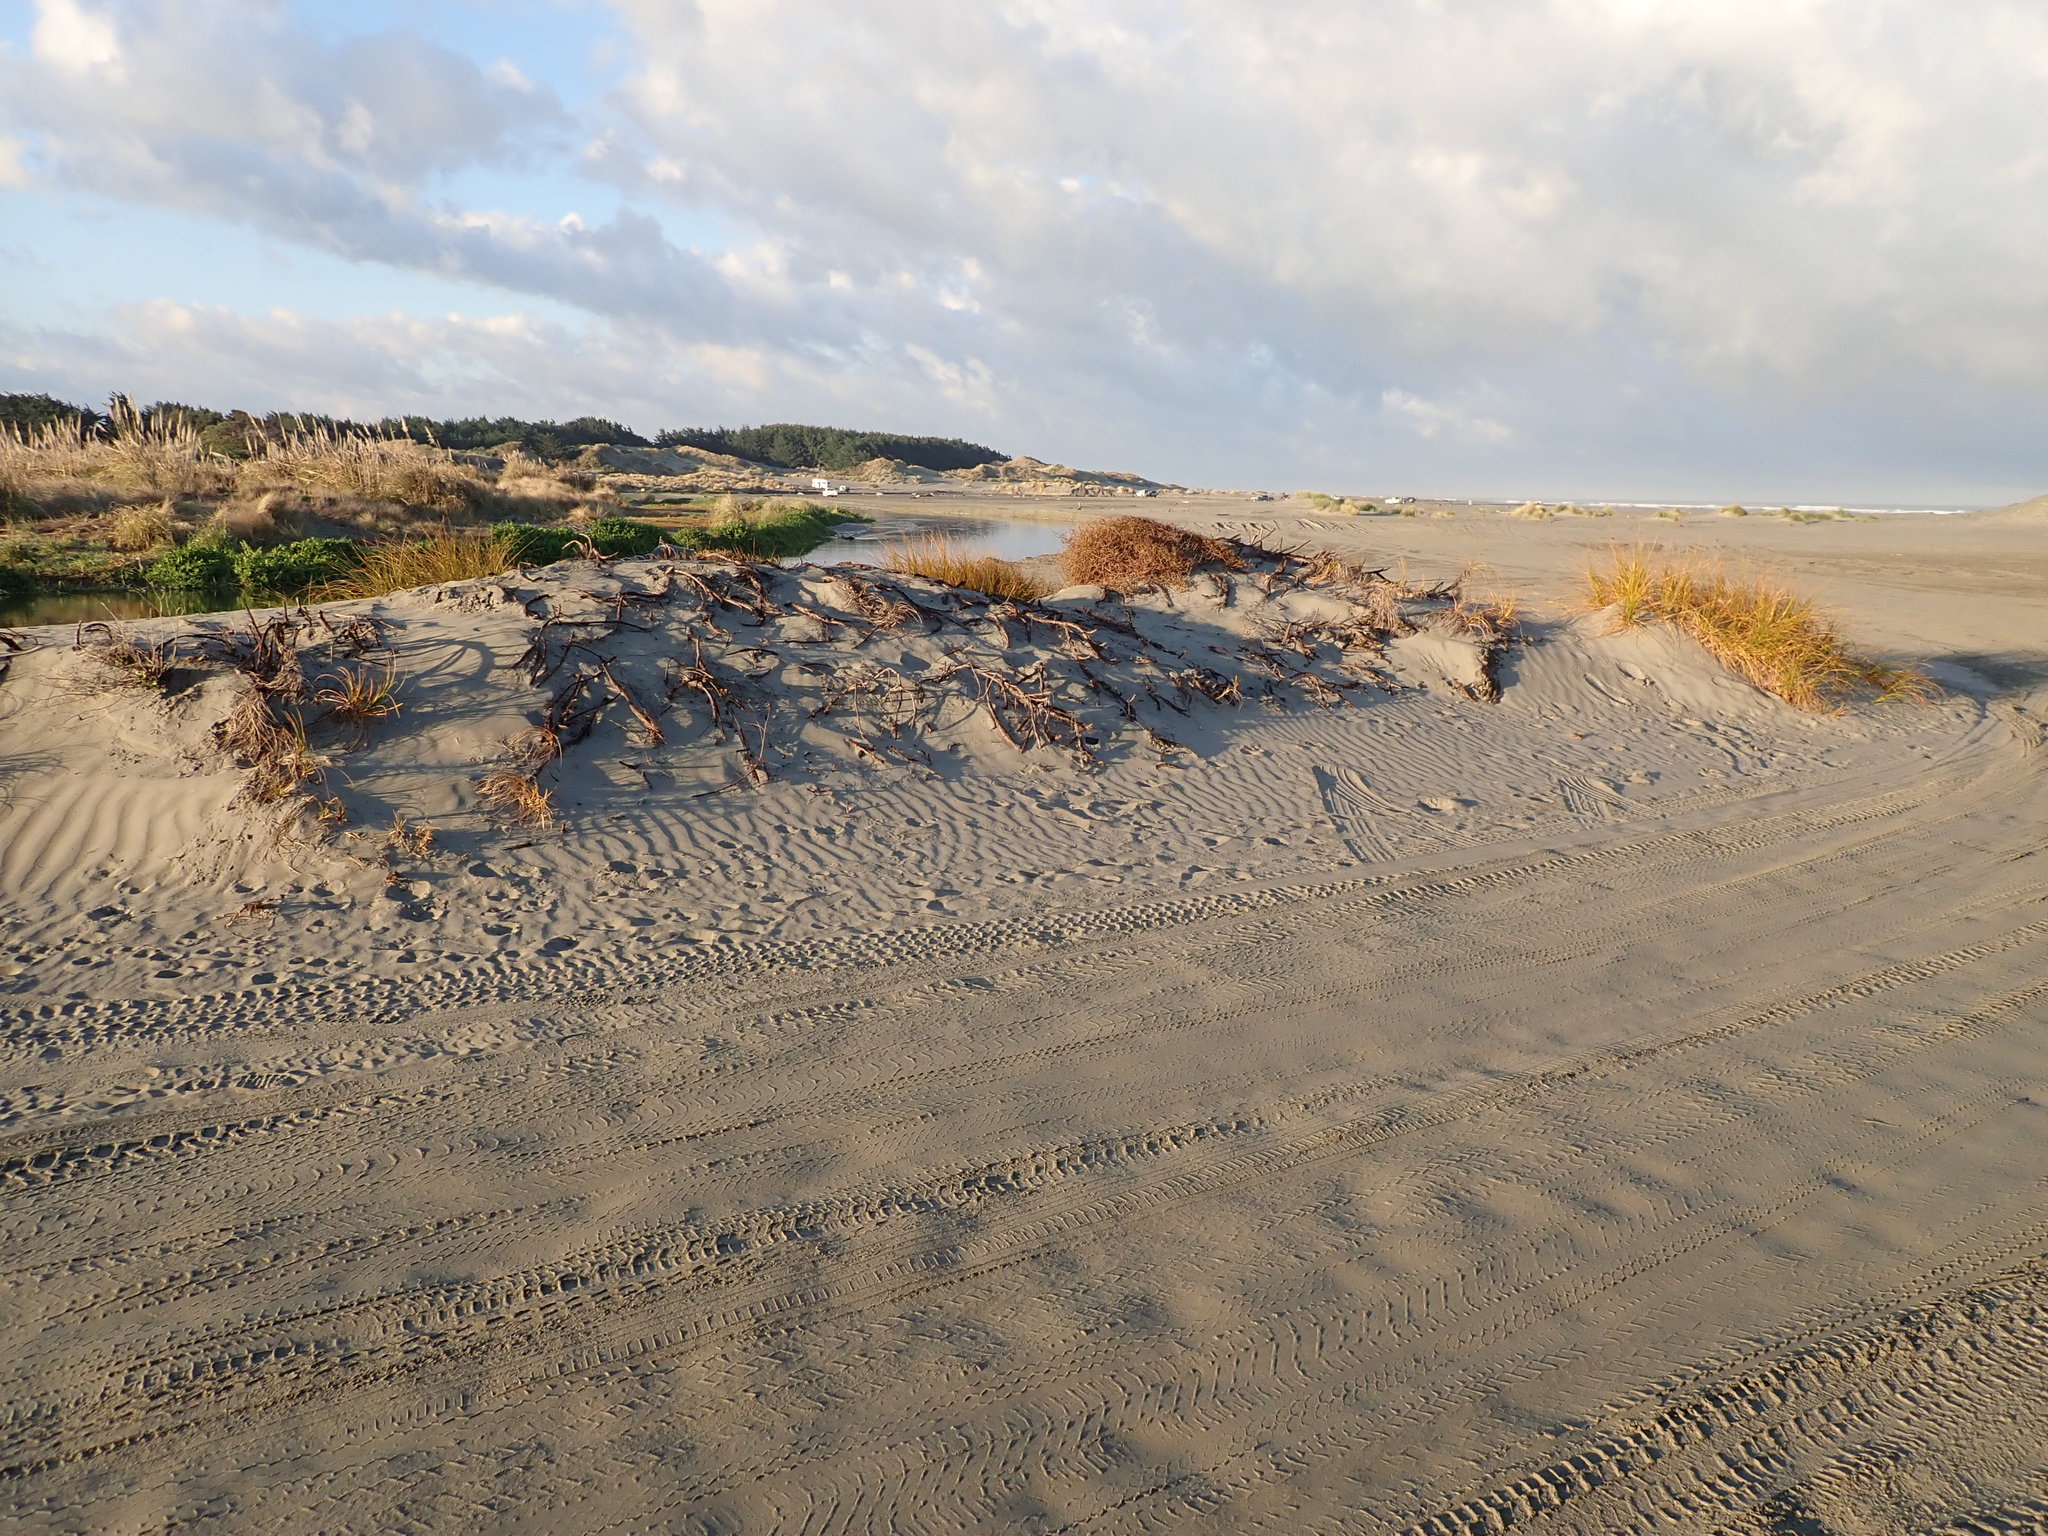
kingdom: Plantae
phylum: Tracheophyta
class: Liliopsida
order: Poales
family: Cyperaceae
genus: Ficinia
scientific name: Ficinia spiralis
